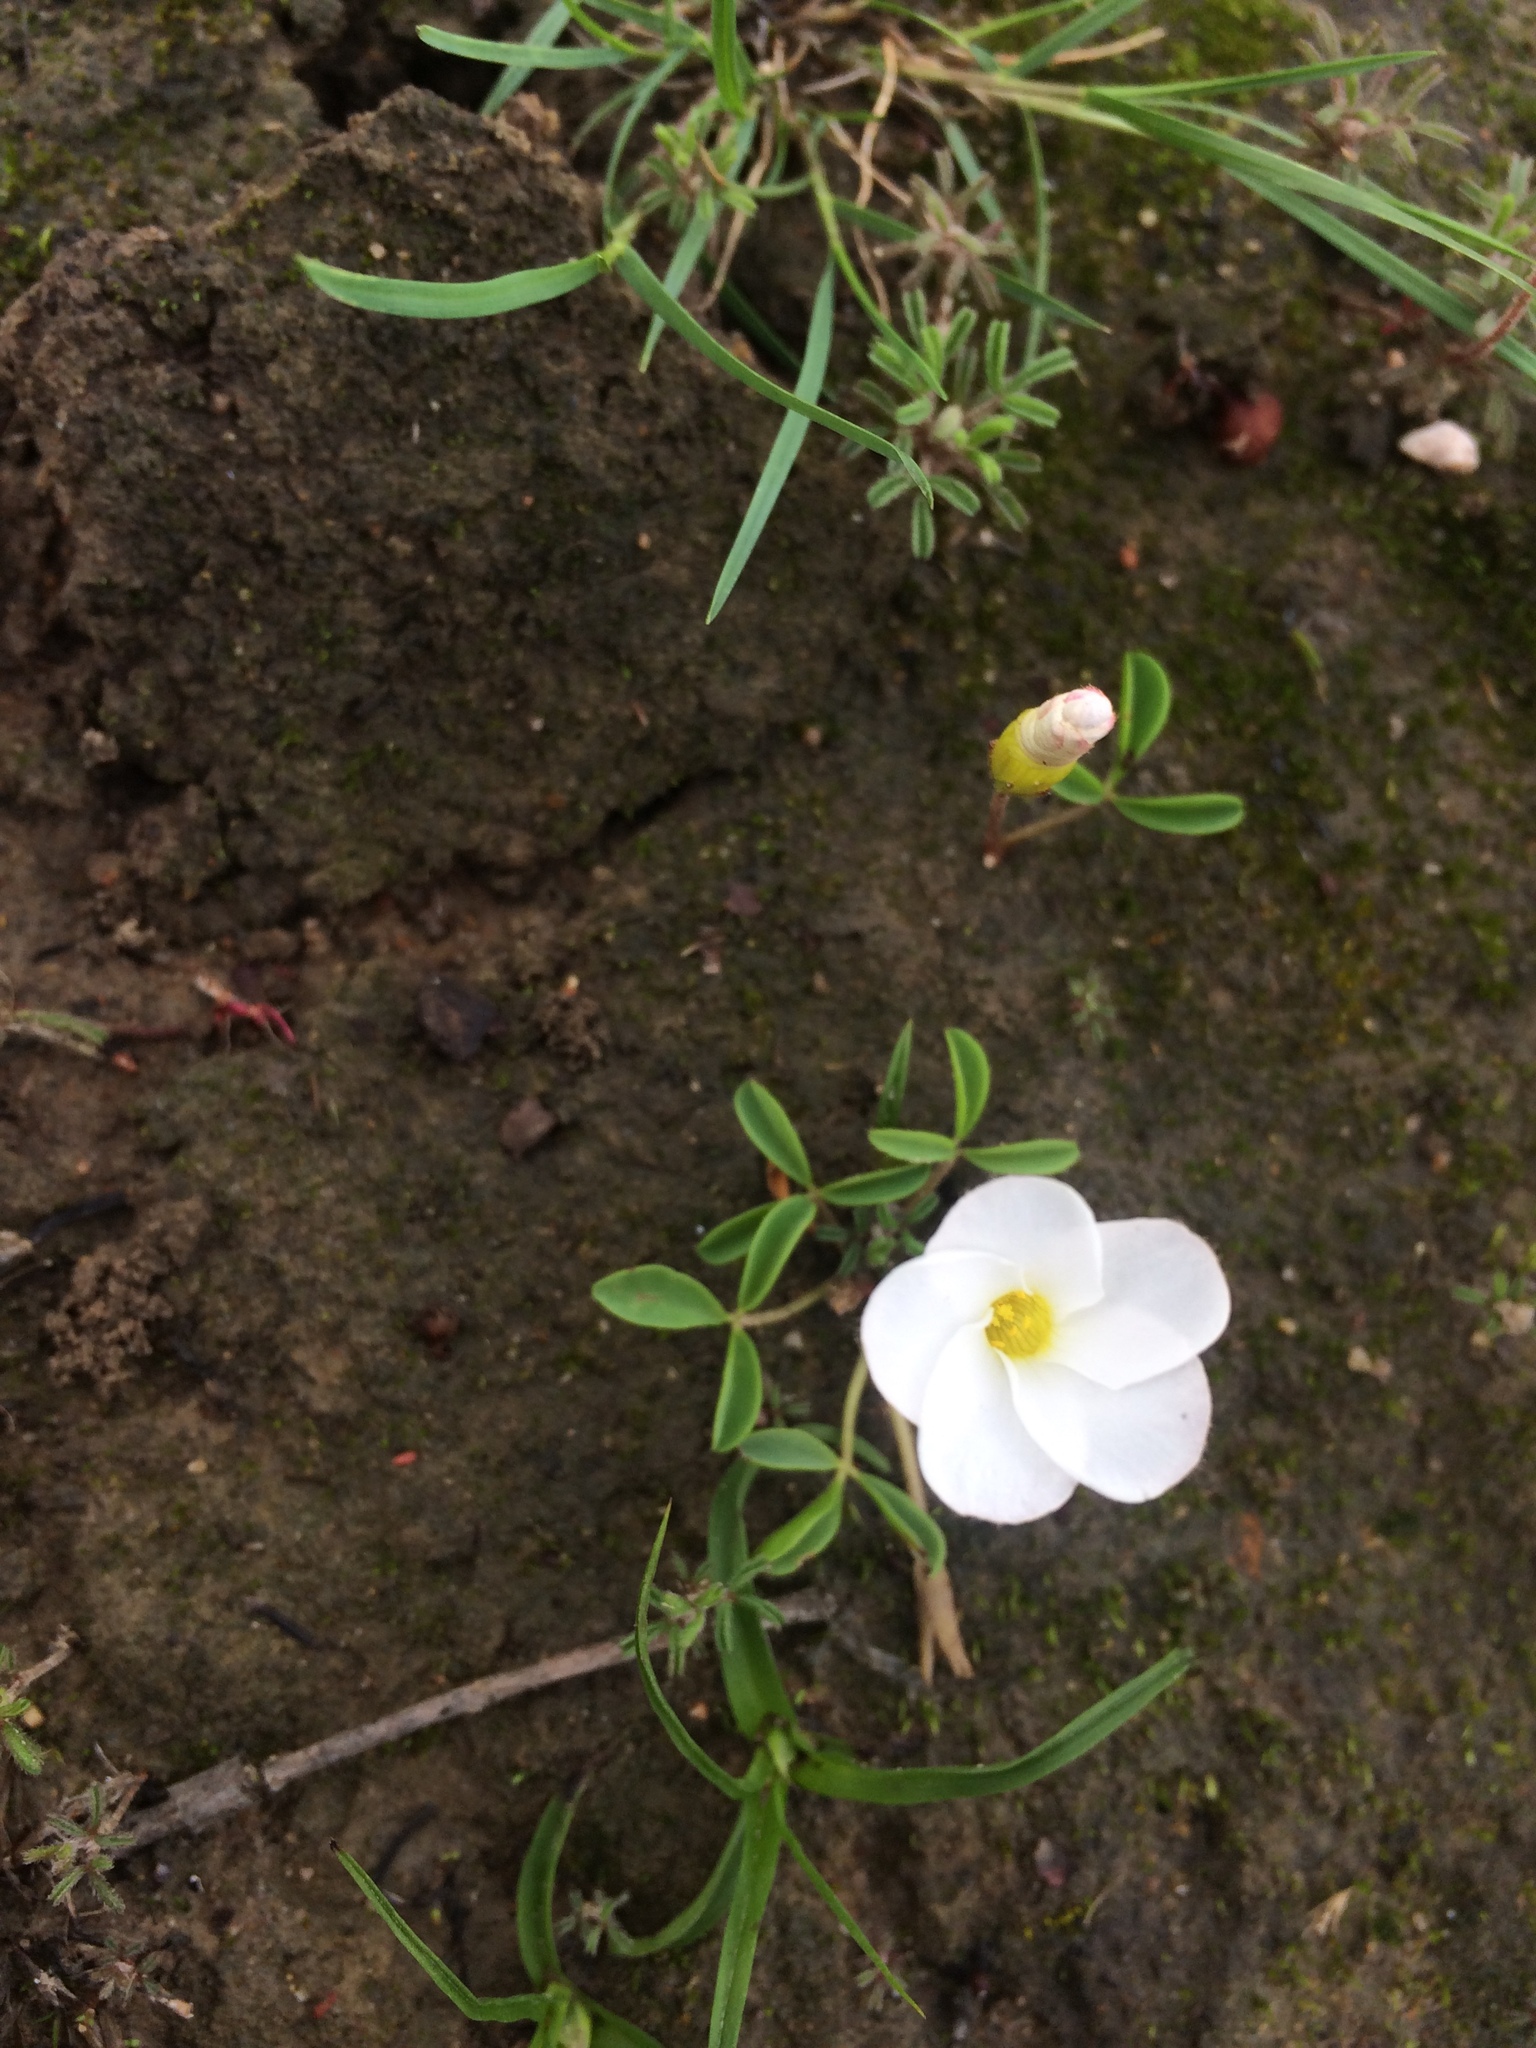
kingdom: Plantae
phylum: Tracheophyta
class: Magnoliopsida
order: Oxalidales
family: Oxalidaceae
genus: Oxalis
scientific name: Oxalis minuta
